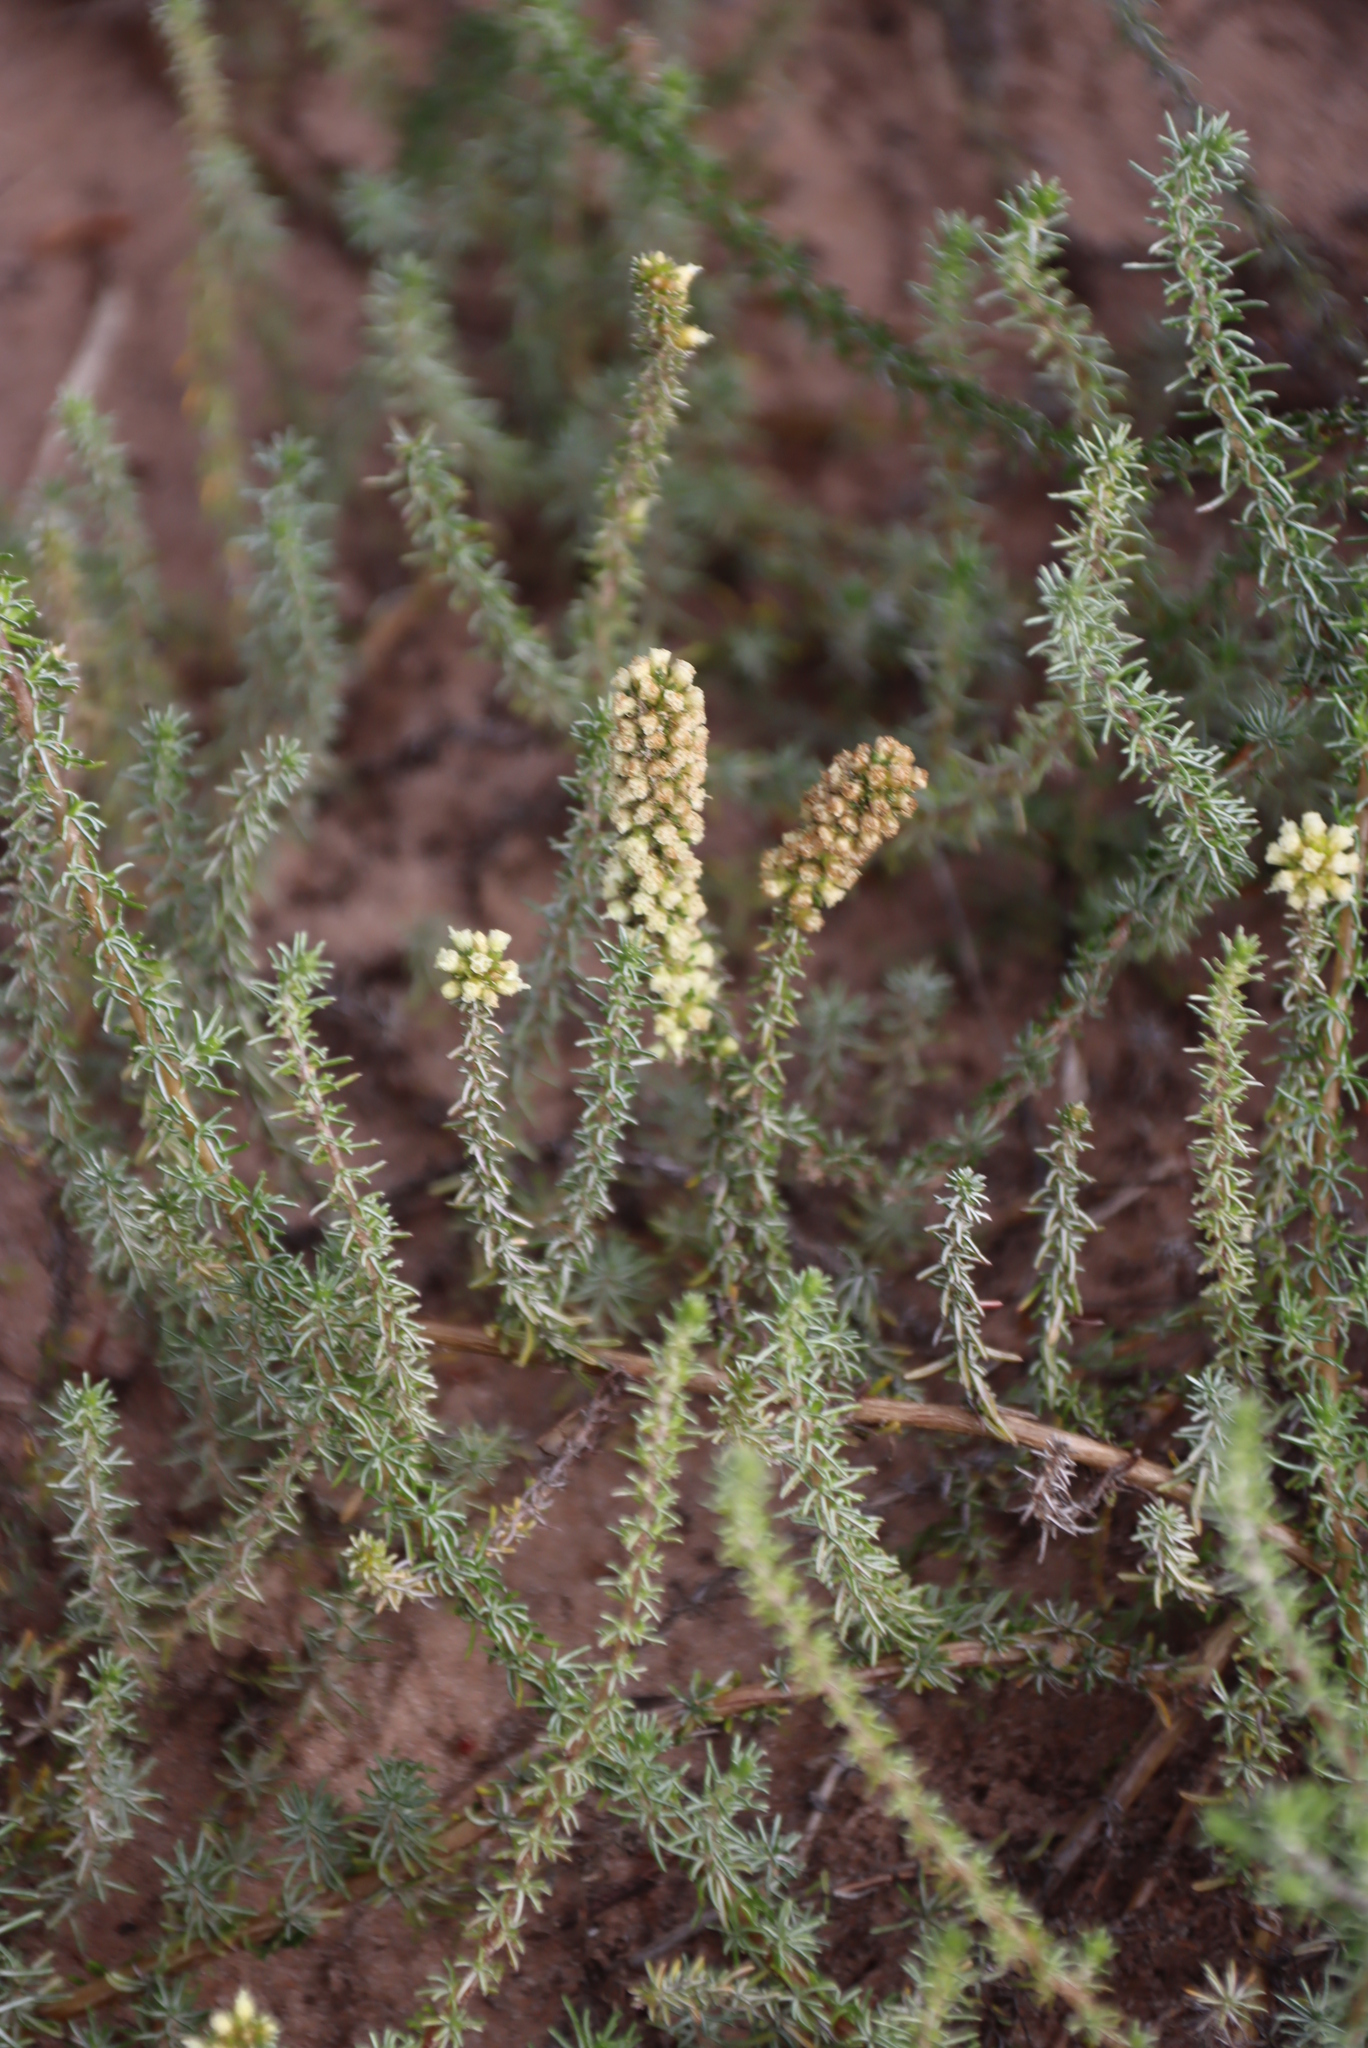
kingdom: Plantae
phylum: Tracheophyta
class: Magnoliopsida
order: Asterales
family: Asteraceae
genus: Ifloga
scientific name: Ifloga pilulifera
